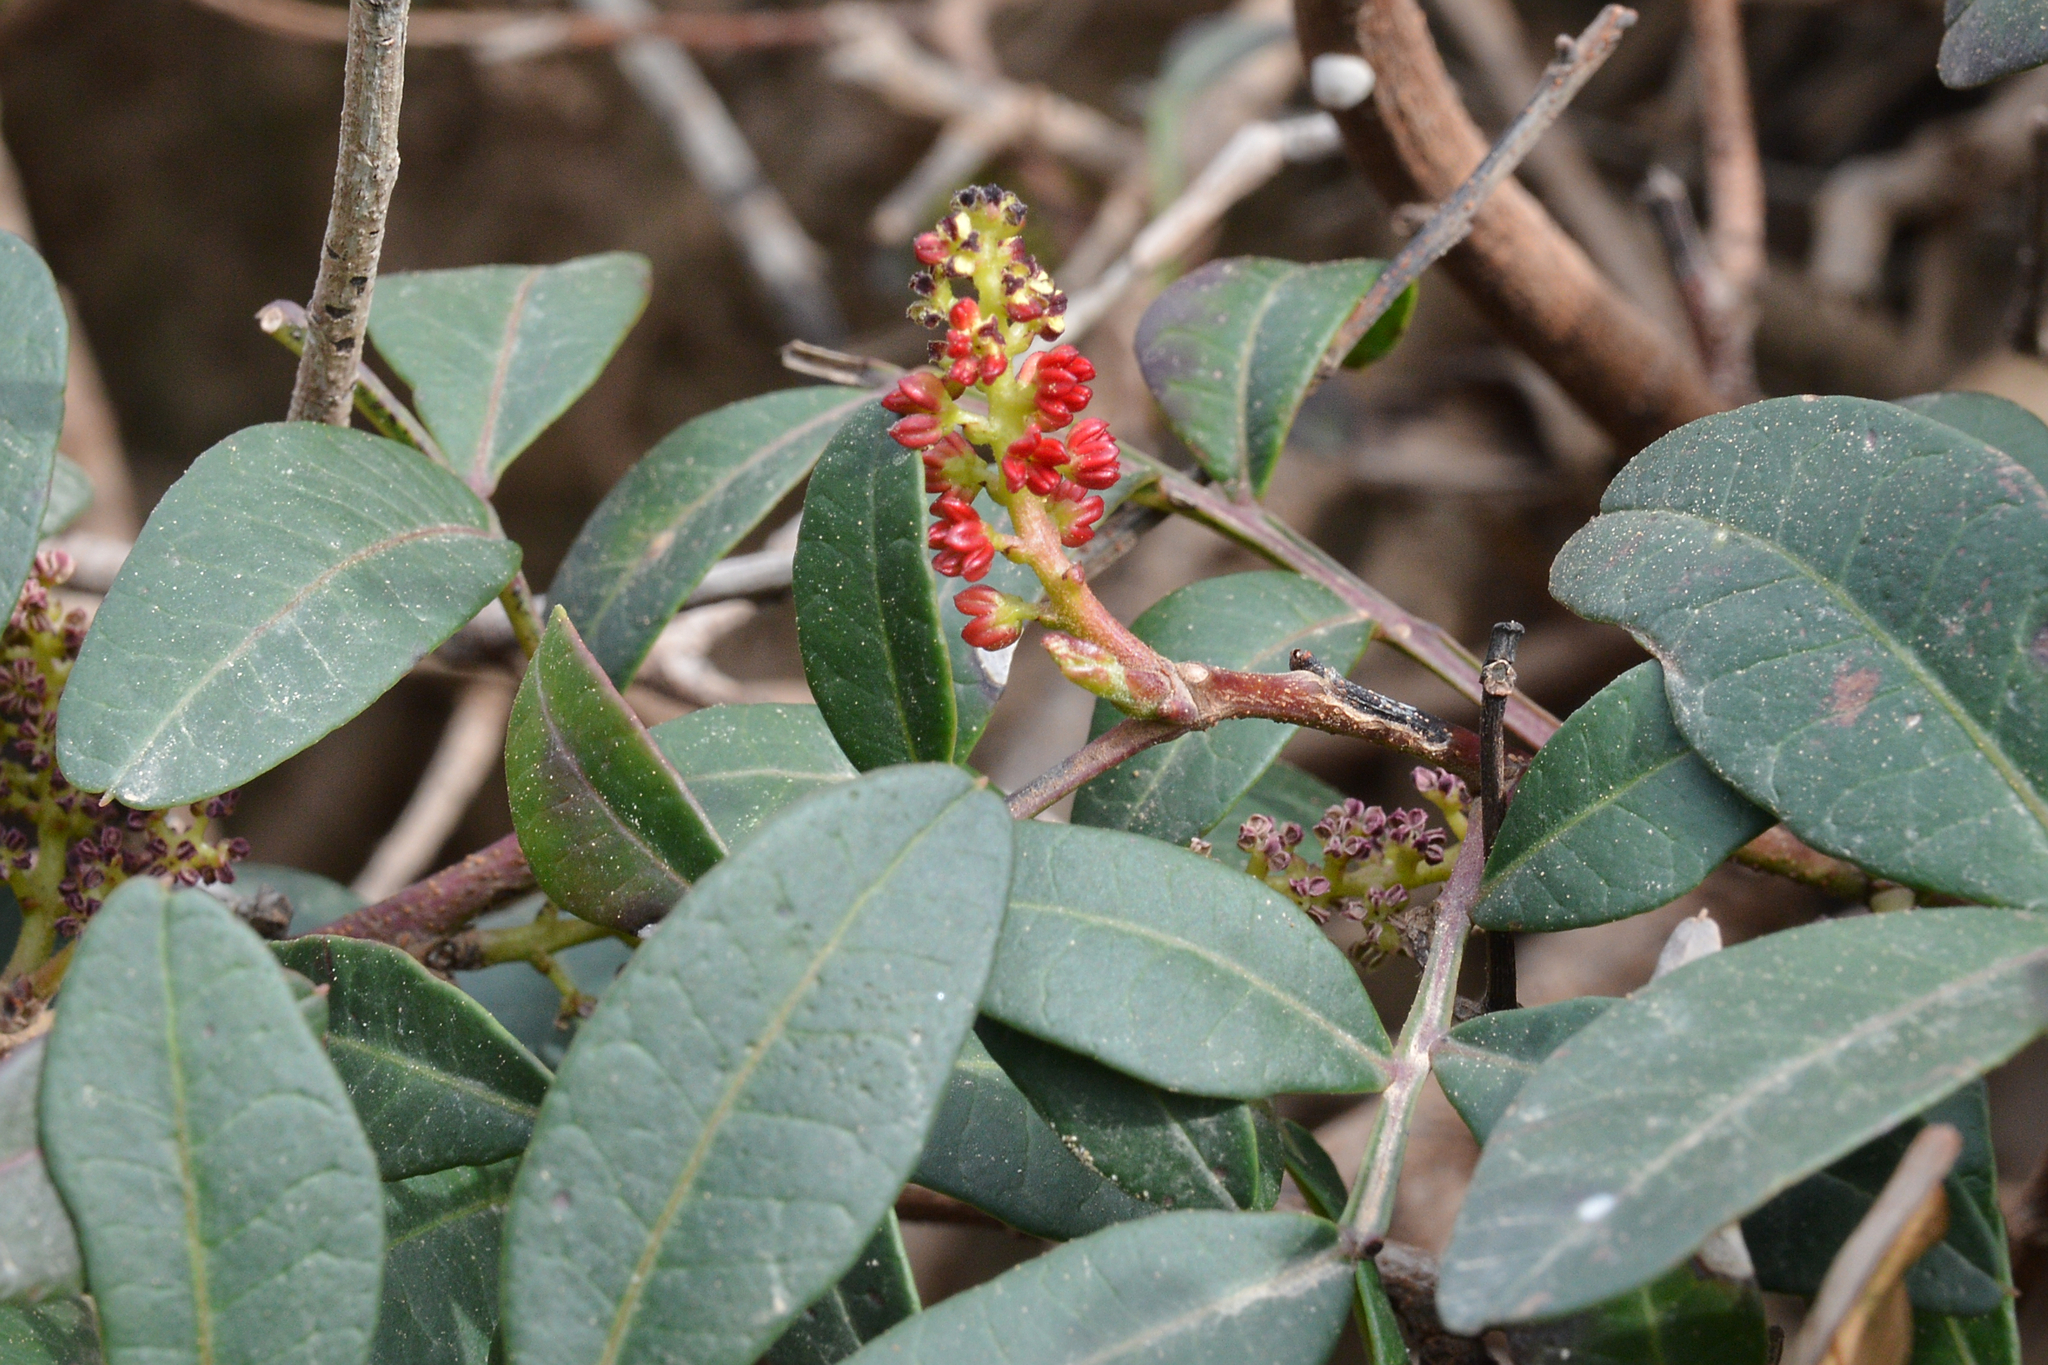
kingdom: Plantae
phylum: Tracheophyta
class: Magnoliopsida
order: Sapindales
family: Anacardiaceae
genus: Pistacia
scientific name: Pistacia lentiscus
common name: Lentisk
